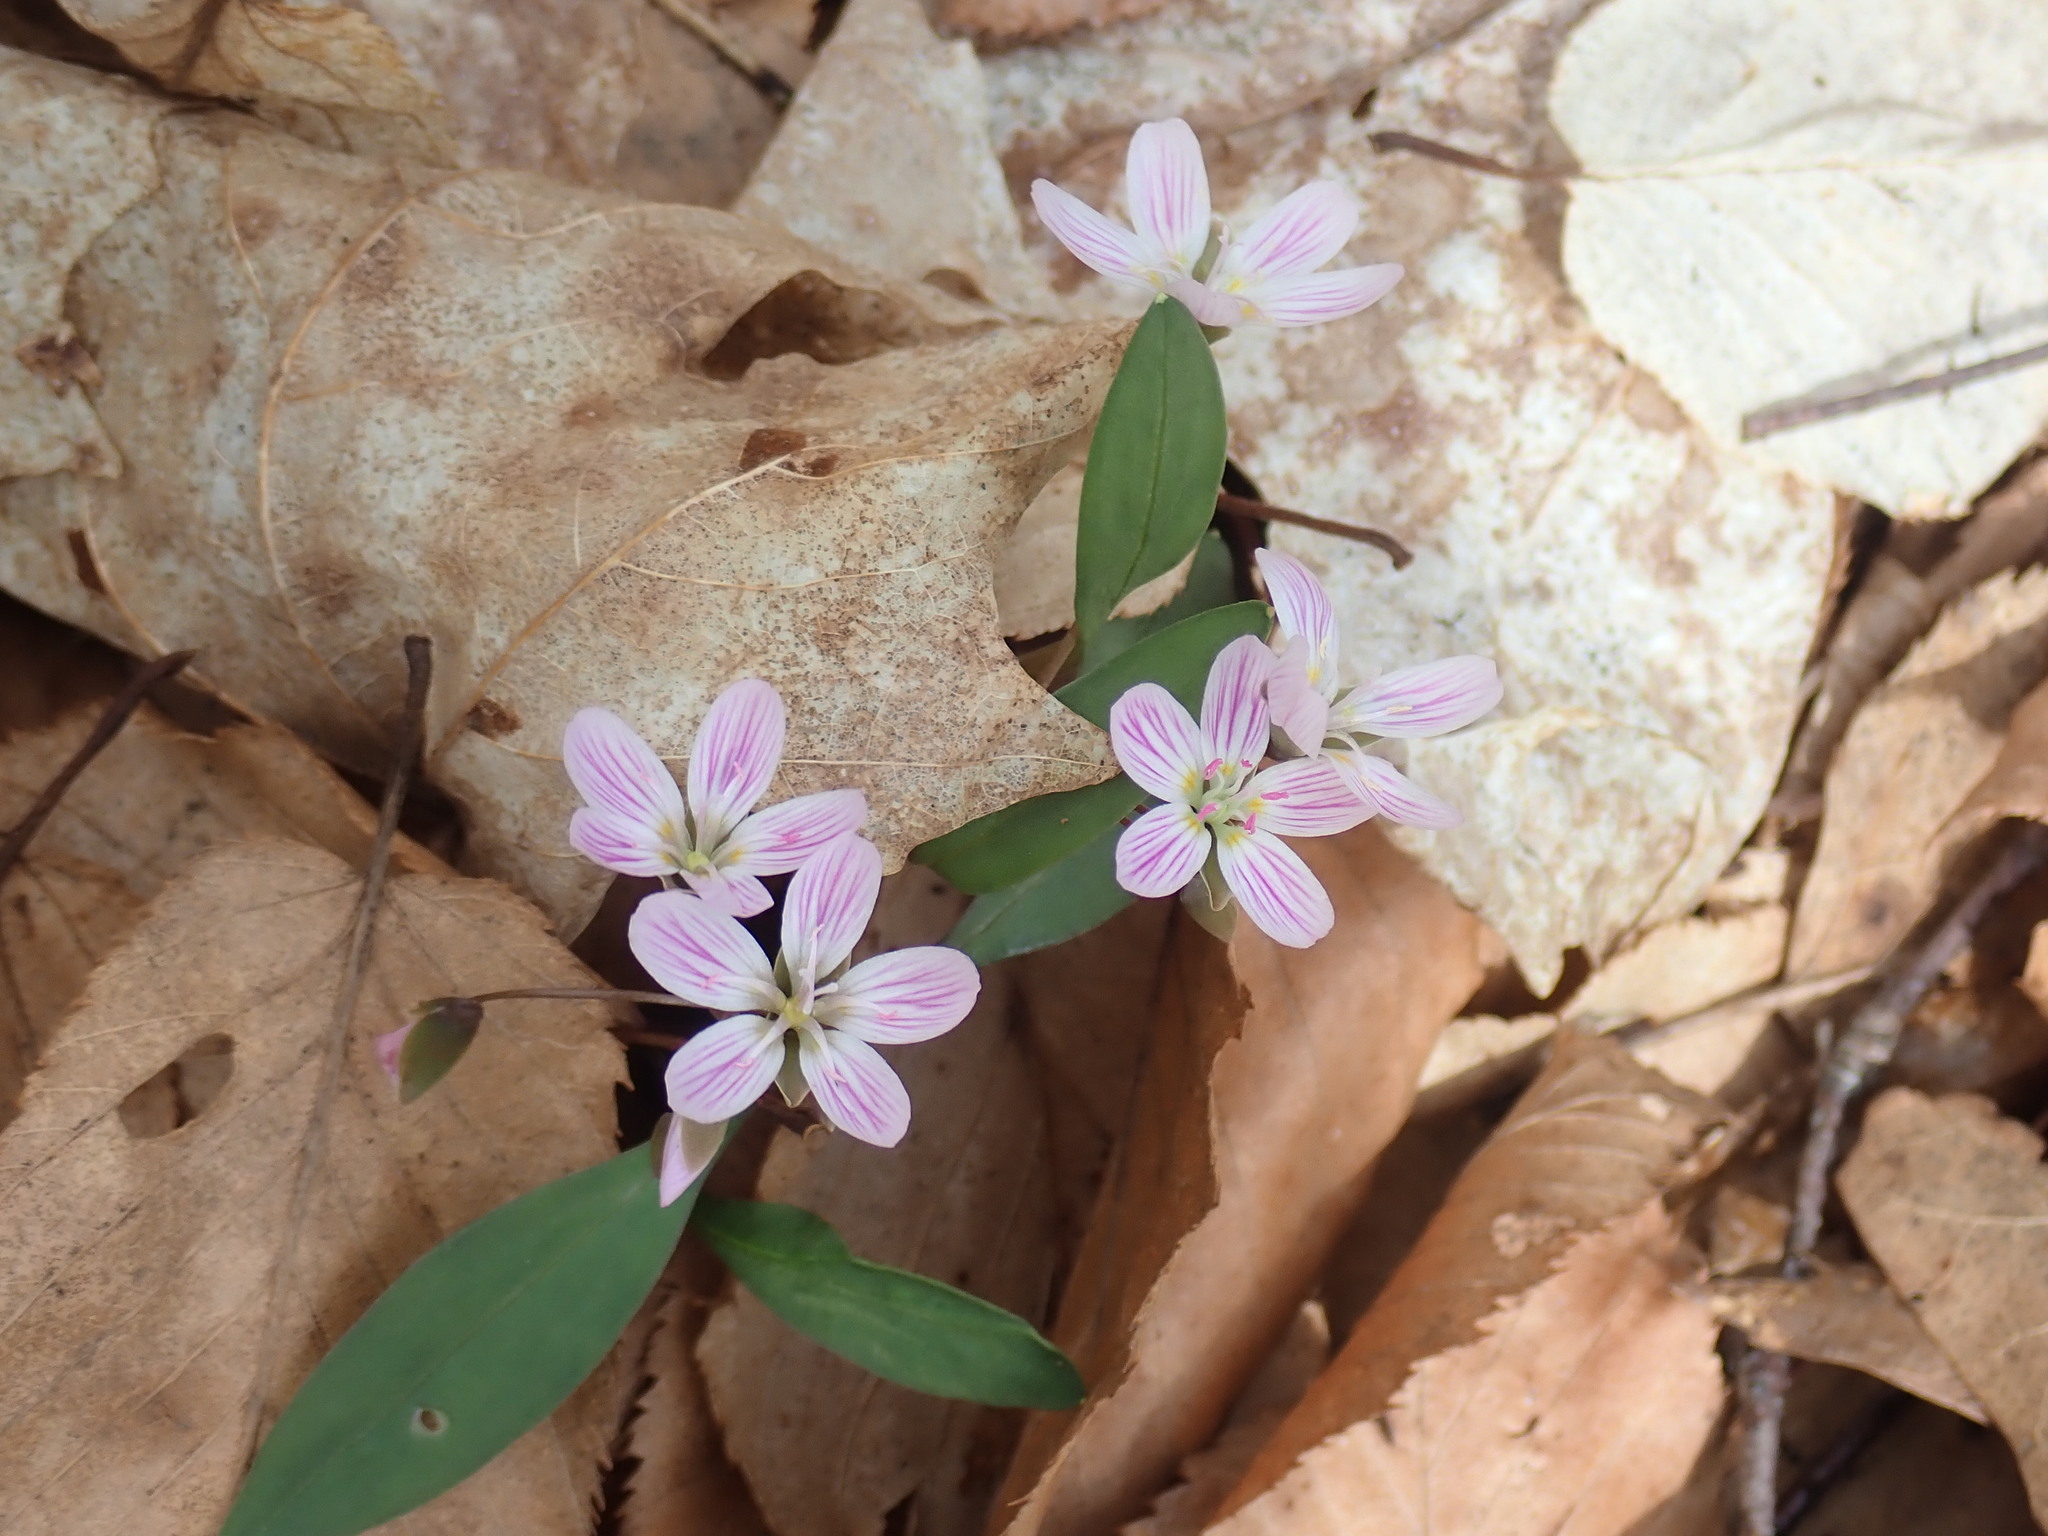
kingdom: Plantae
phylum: Tracheophyta
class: Magnoliopsida
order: Caryophyllales
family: Montiaceae
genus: Claytonia
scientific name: Claytonia caroliniana
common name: Carolina spring beauty
